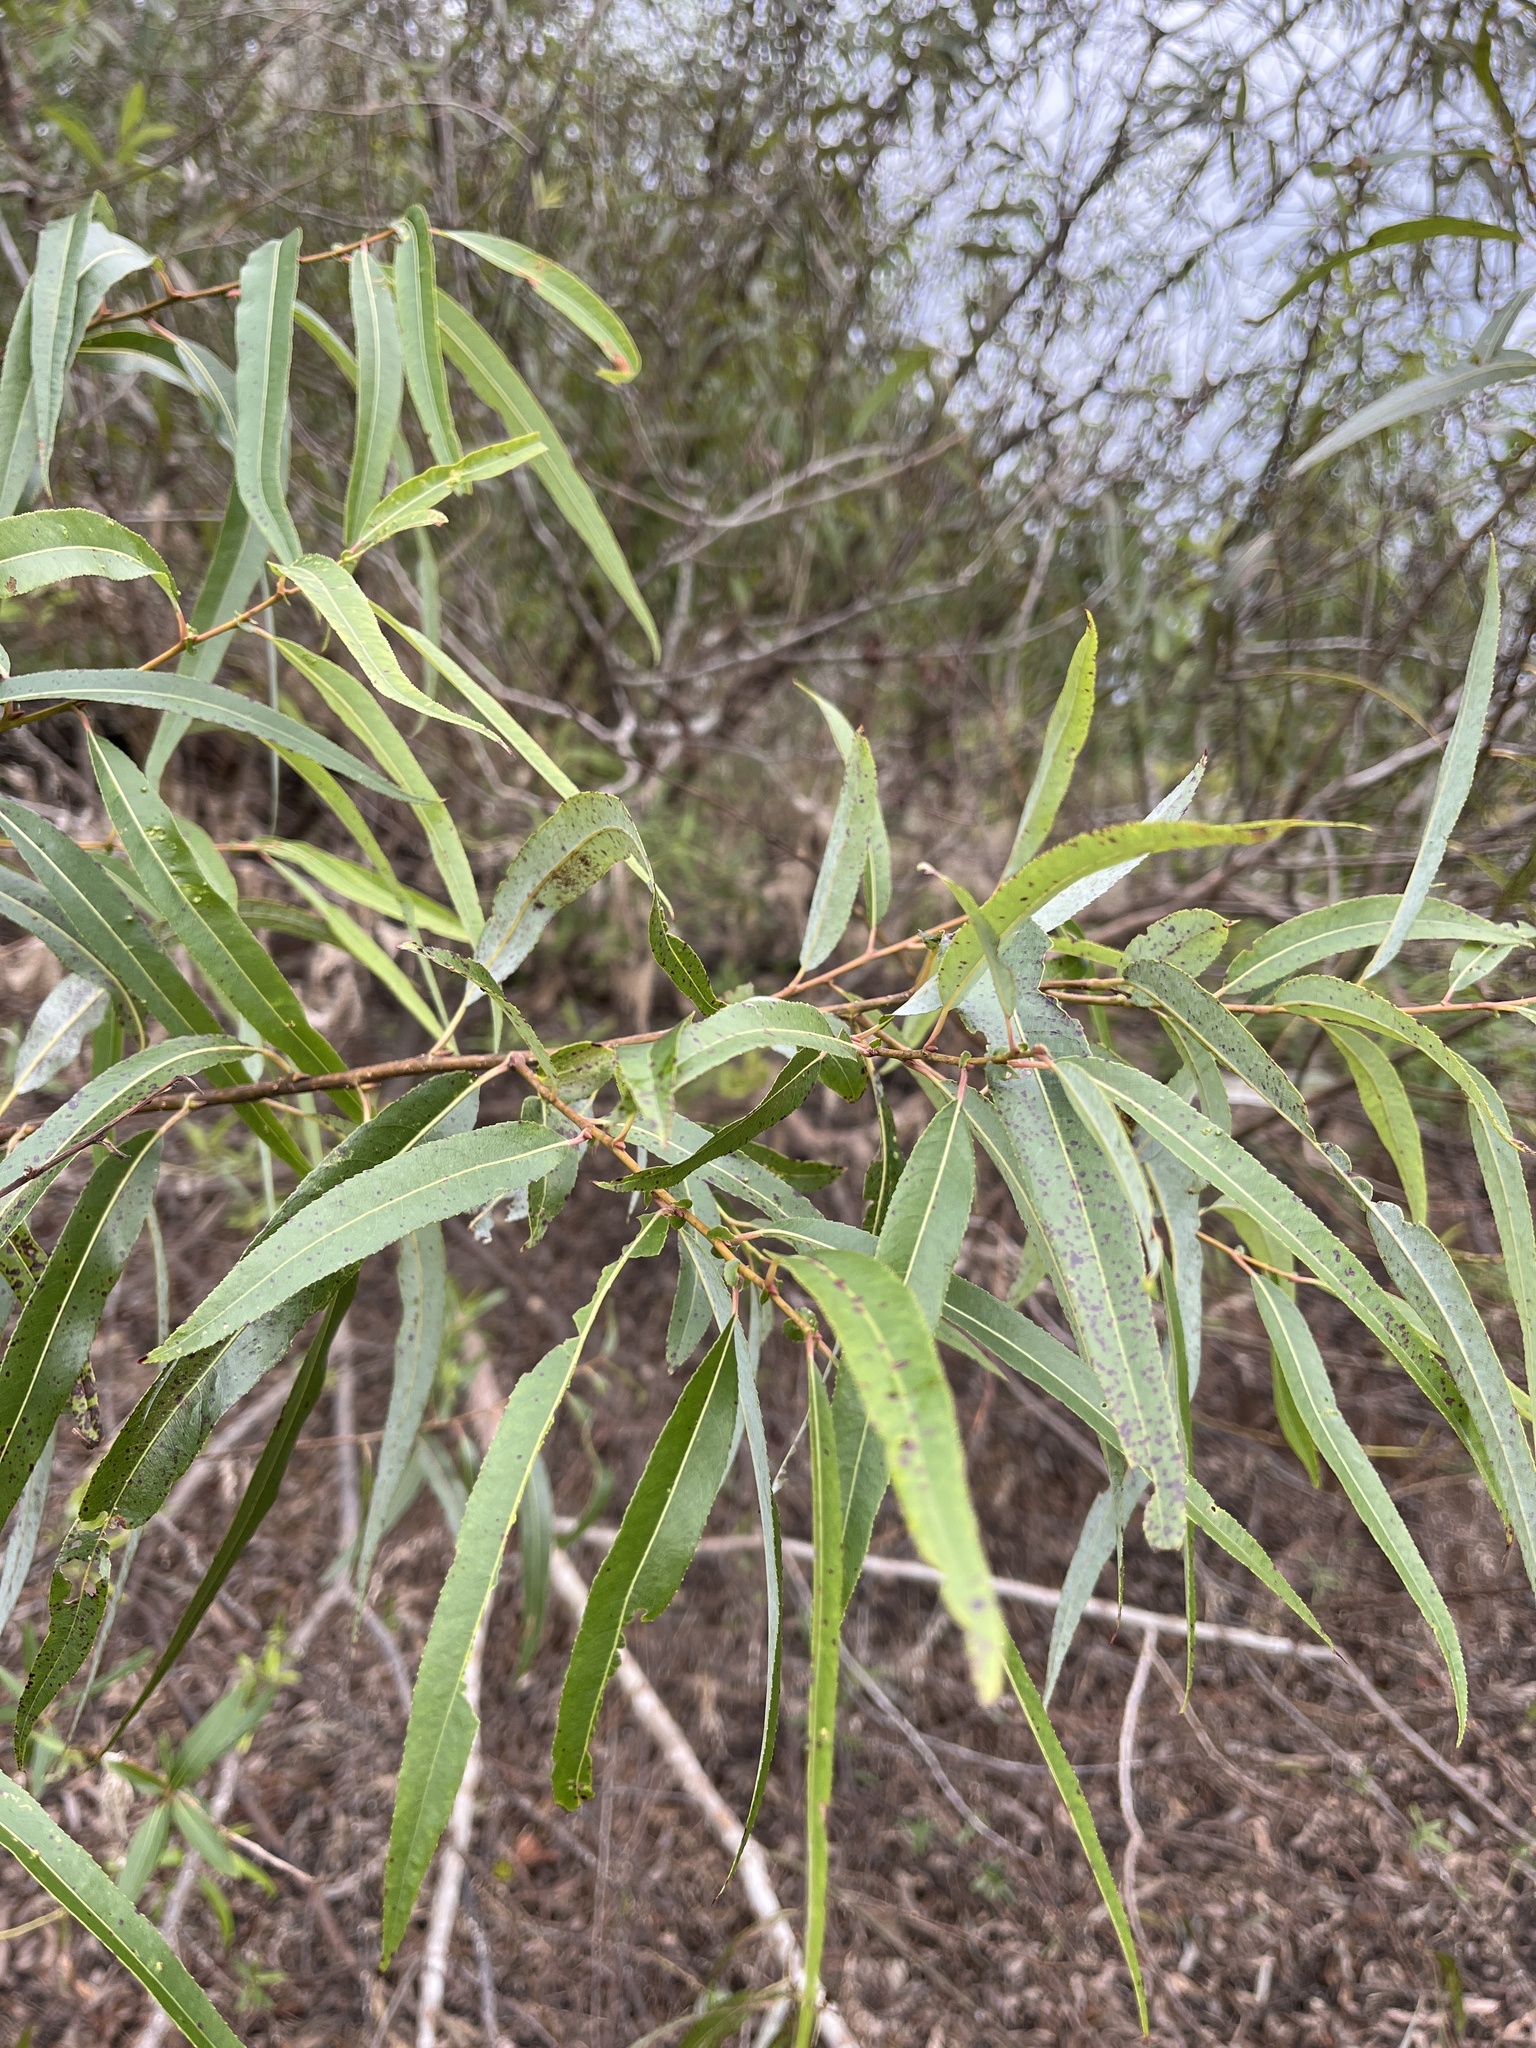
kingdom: Plantae
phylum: Tracheophyta
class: Magnoliopsida
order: Malpighiales
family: Salicaceae
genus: Salix
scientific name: Salix caroliniana
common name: Carolina willow
